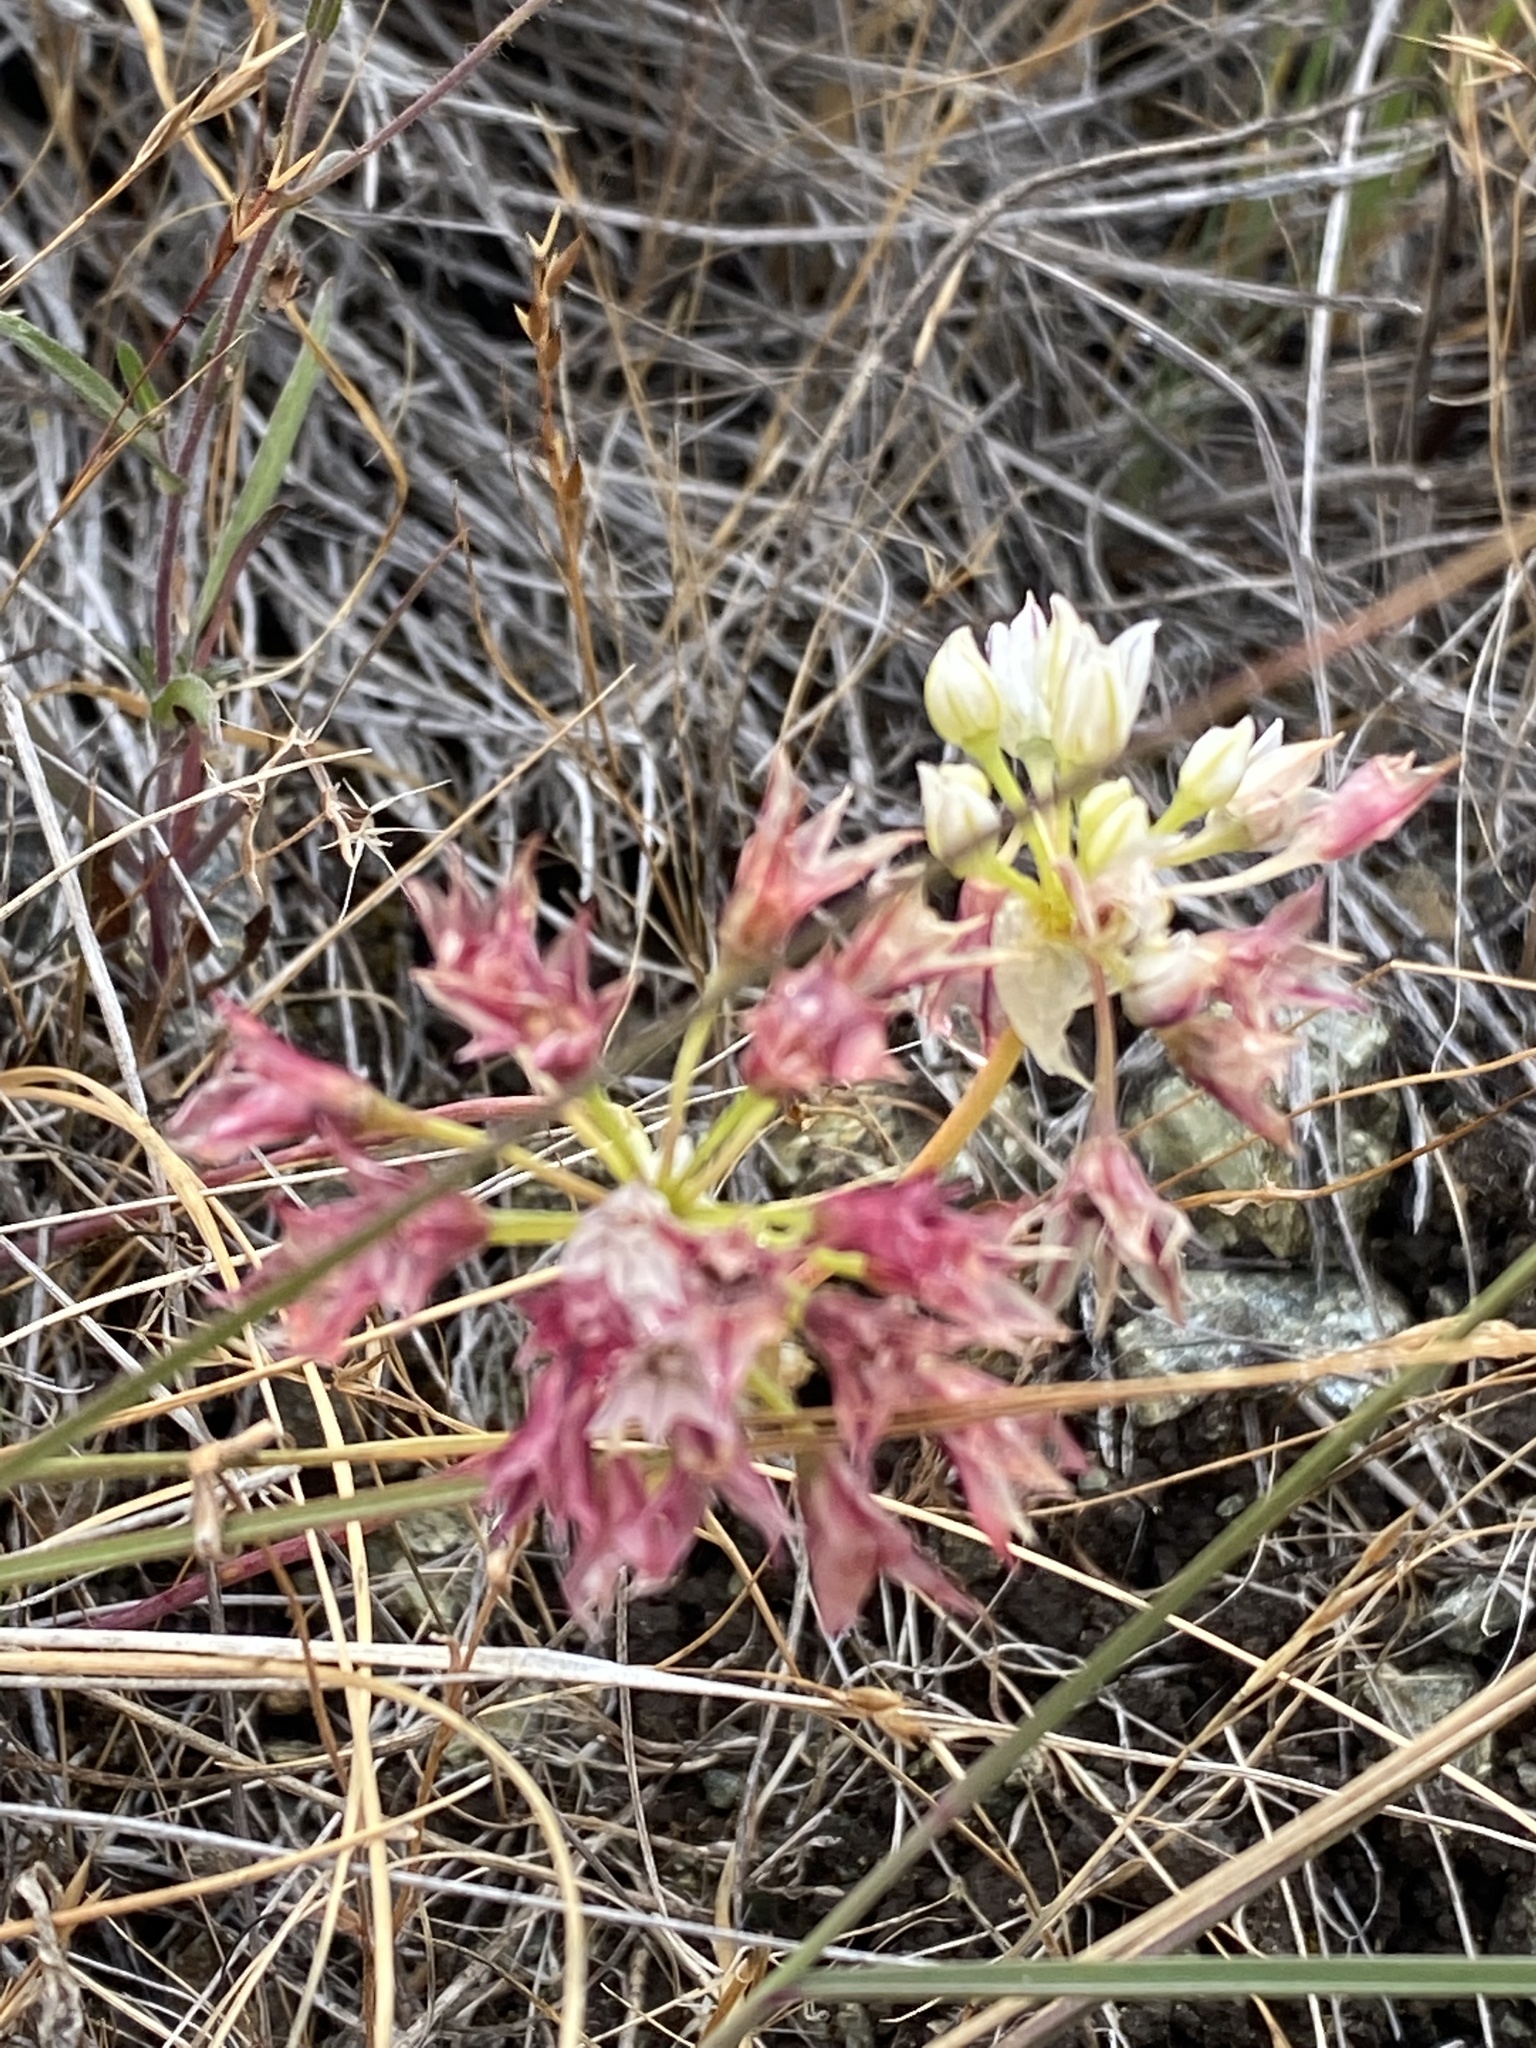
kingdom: Plantae
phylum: Tracheophyta
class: Liliopsida
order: Asparagales
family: Amaryllidaceae
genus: Allium
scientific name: Allium lacunosum
